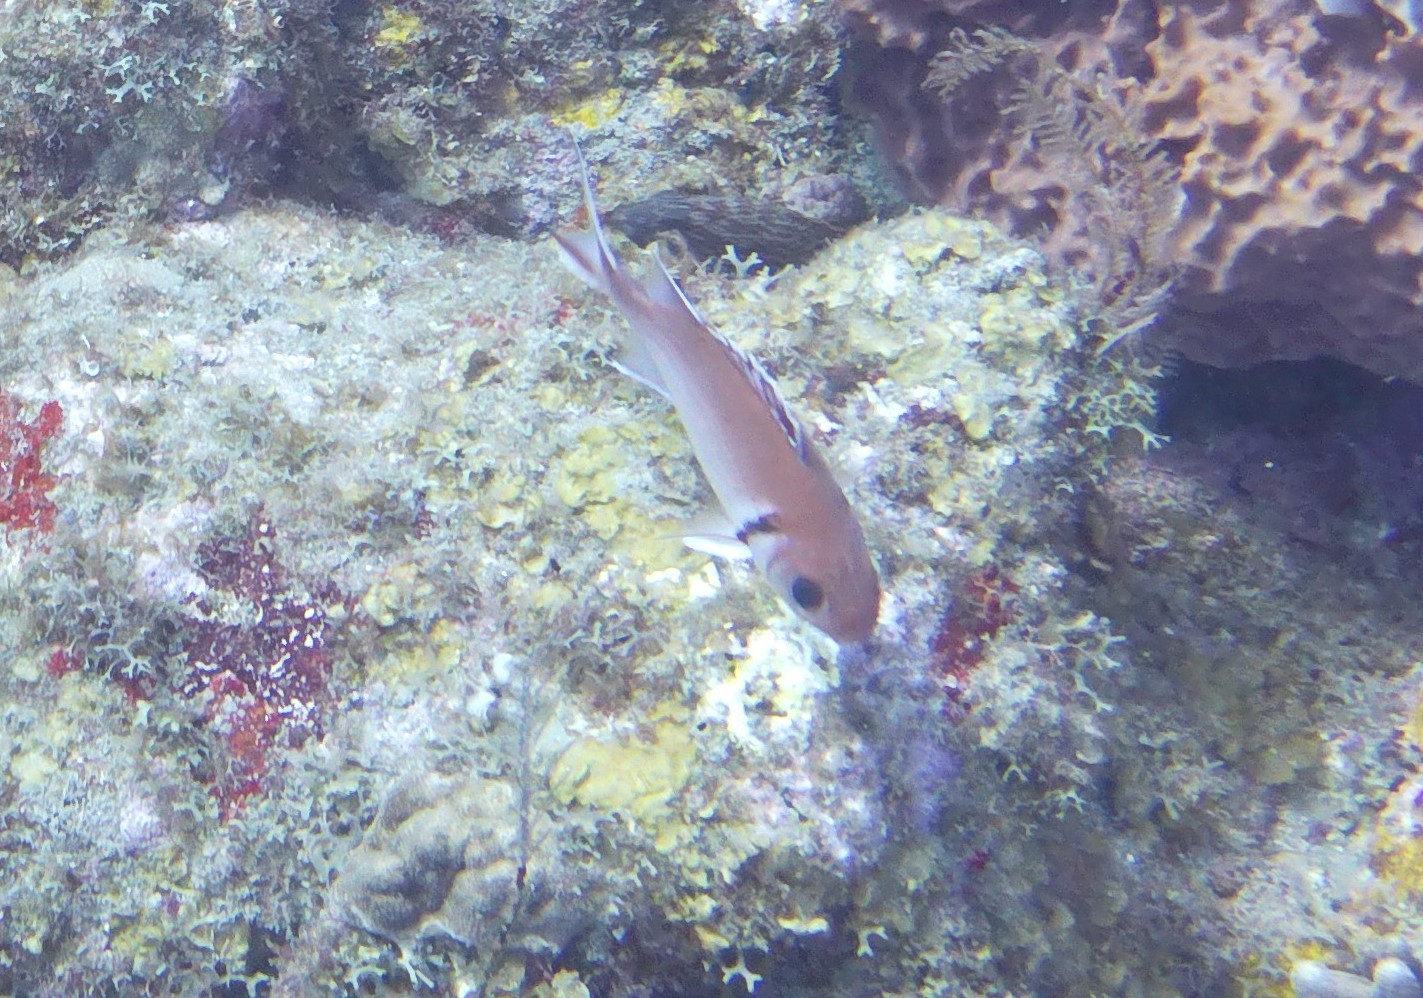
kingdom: Animalia
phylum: Chordata
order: Beryciformes
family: Holocentridae
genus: Myripristis
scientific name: Myripristis jacobus
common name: Blackbar soldierfish
